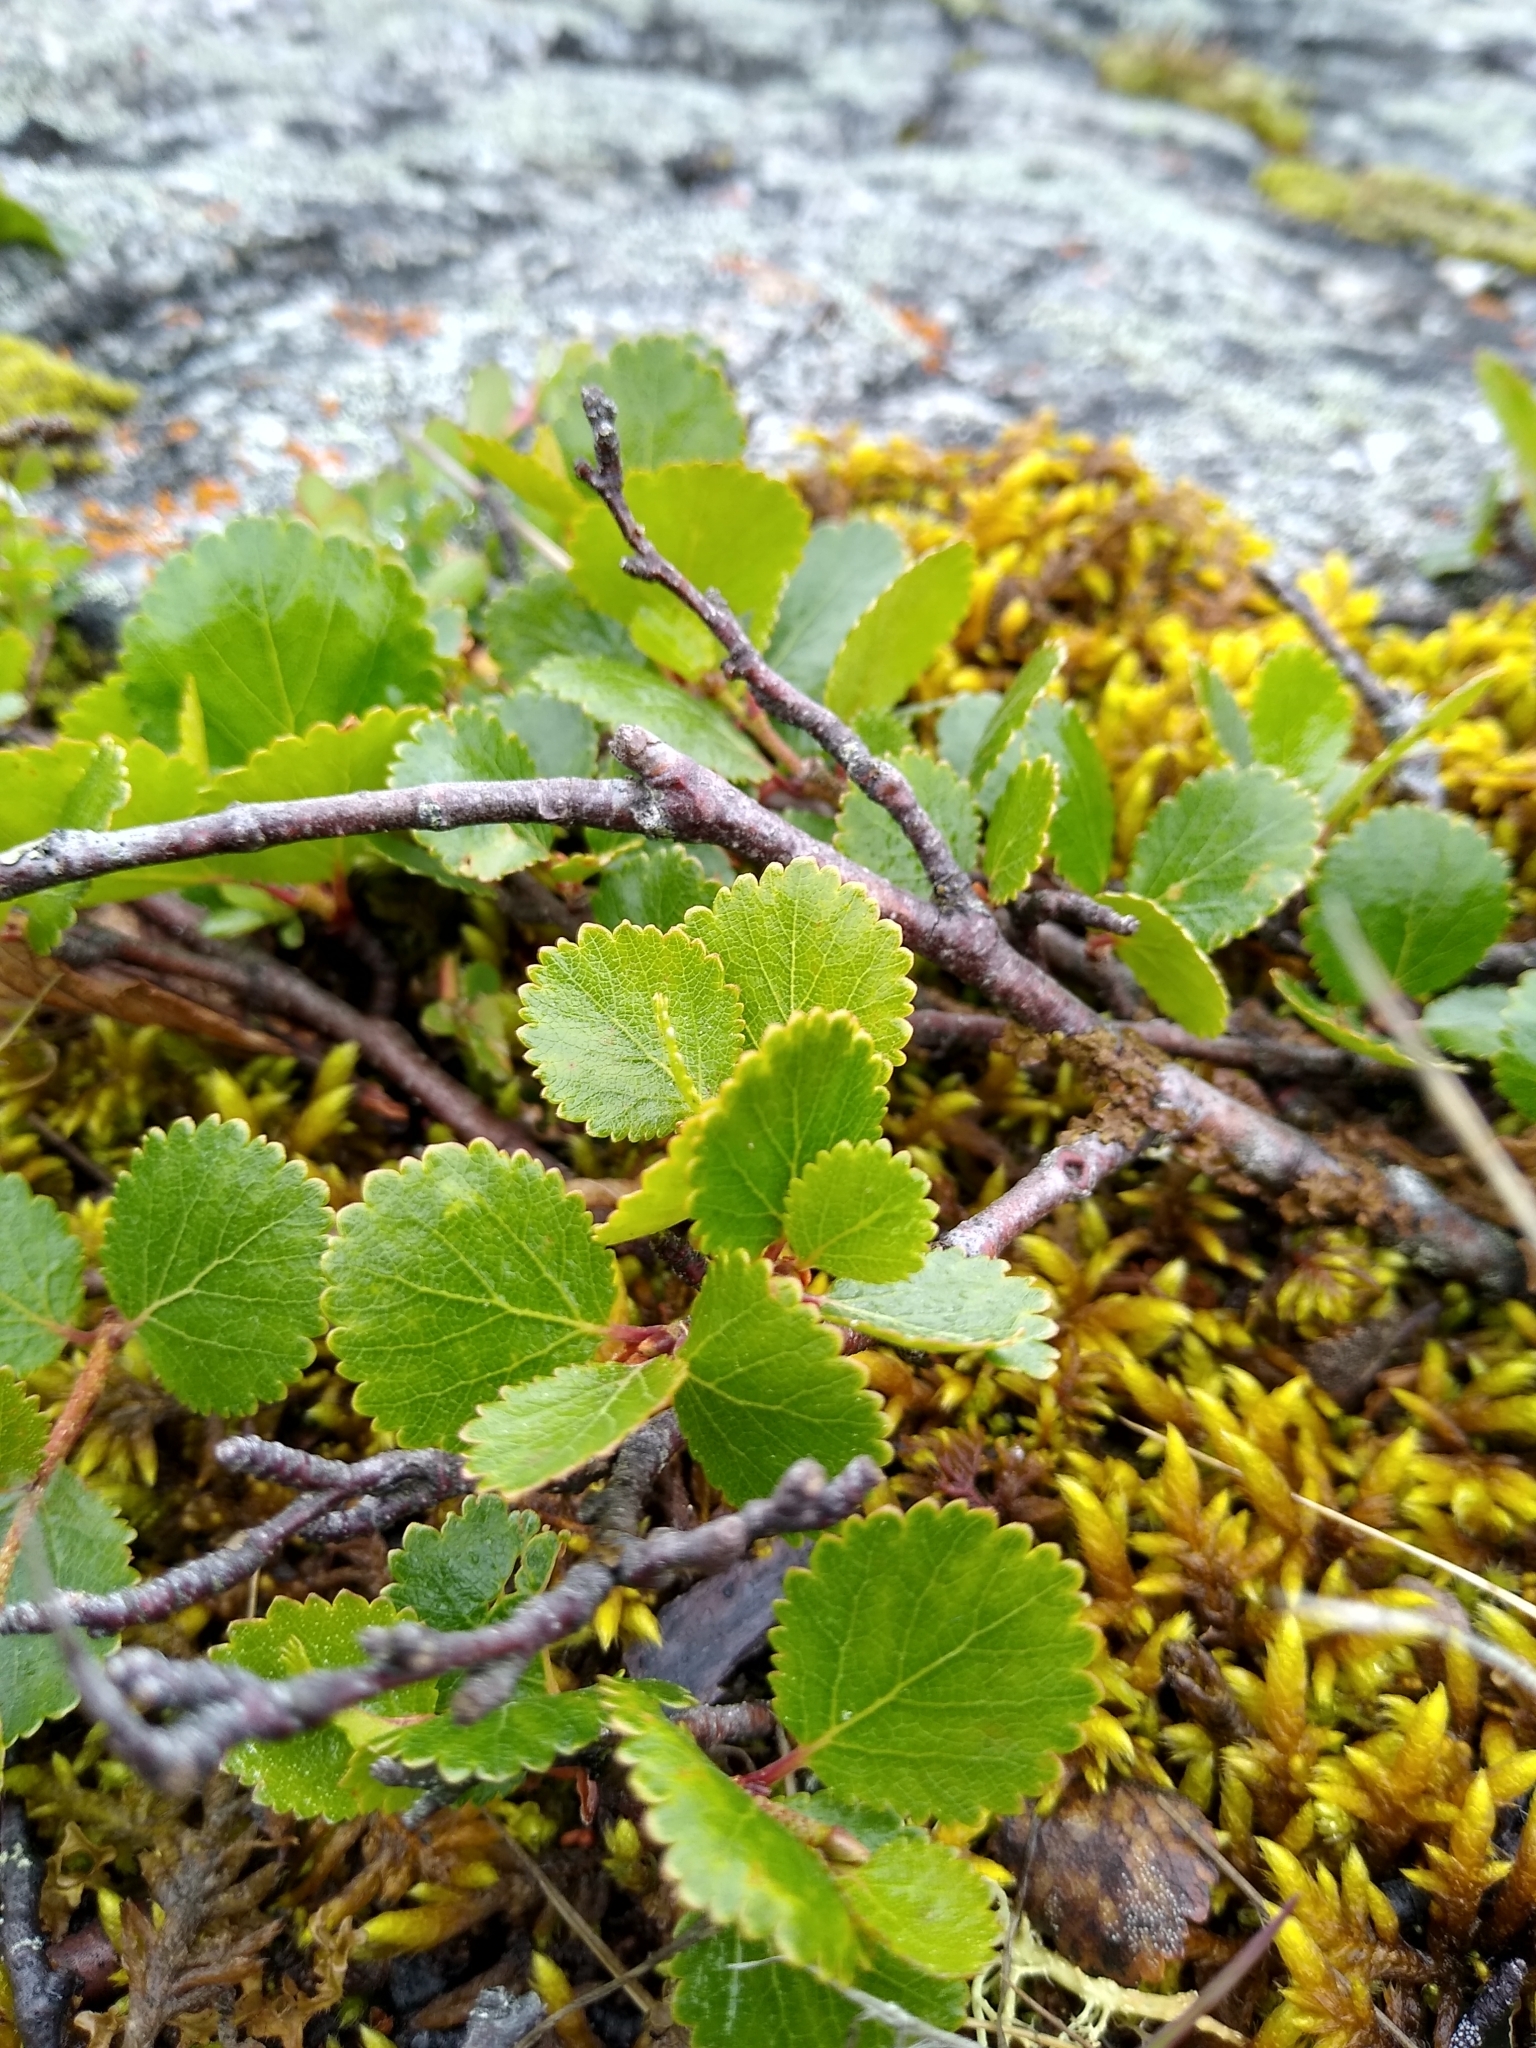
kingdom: Plantae
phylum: Tracheophyta
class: Magnoliopsida
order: Fagales
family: Betulaceae
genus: Betula
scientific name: Betula
